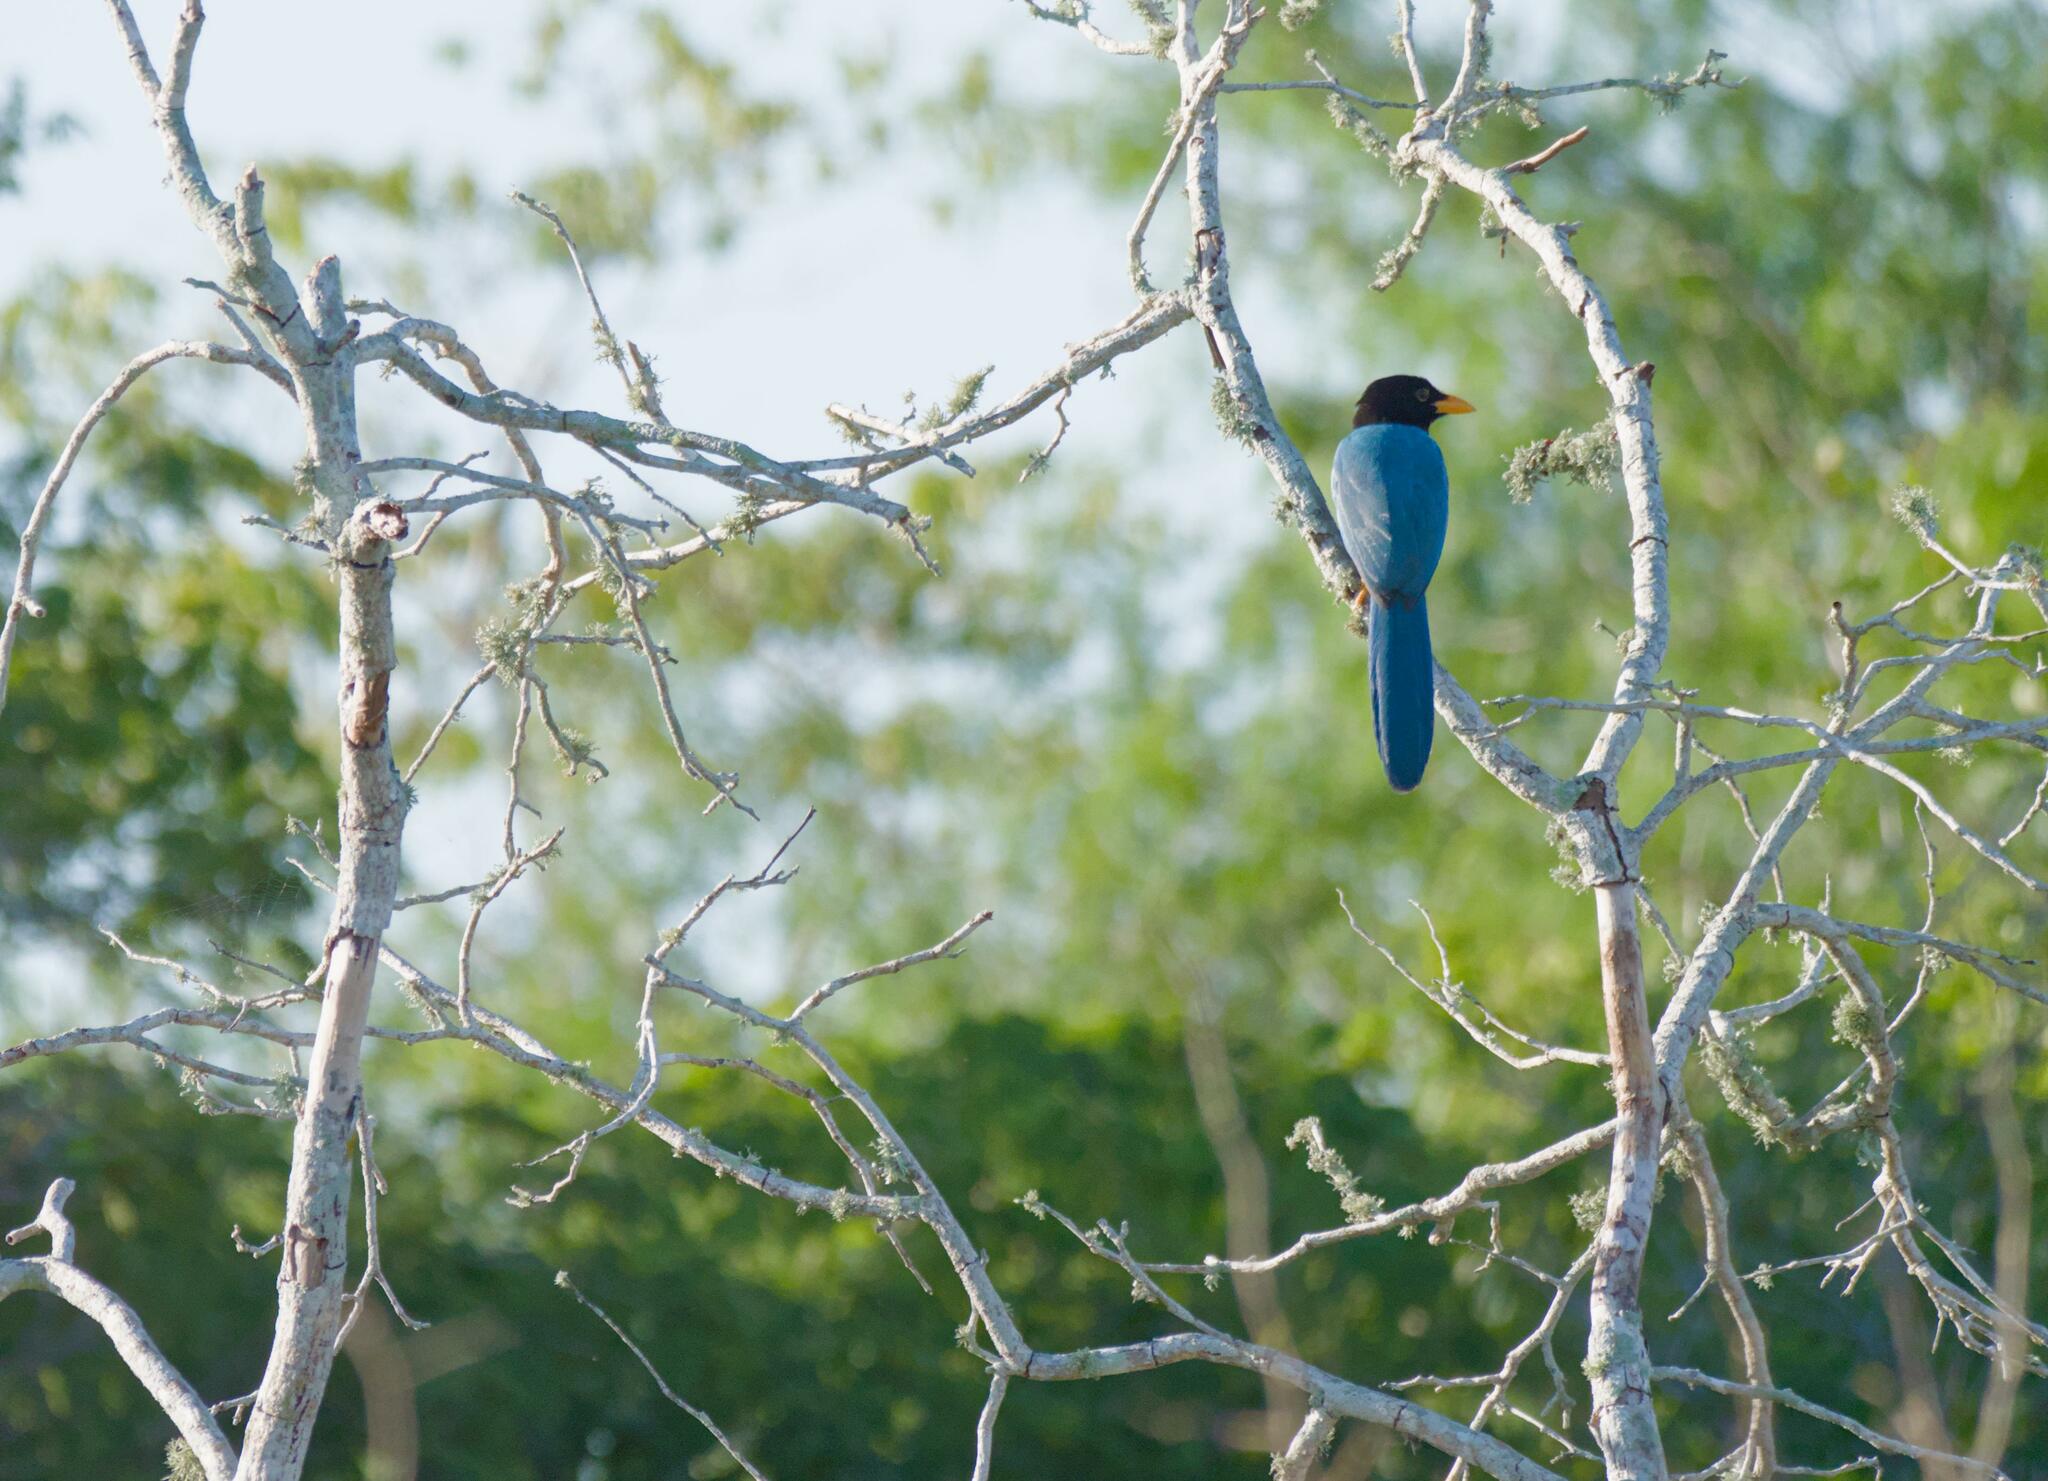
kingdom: Animalia
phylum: Chordata
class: Aves
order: Passeriformes
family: Corvidae
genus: Cyanocorax
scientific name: Cyanocorax yucatanicus
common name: Yucatan jay
